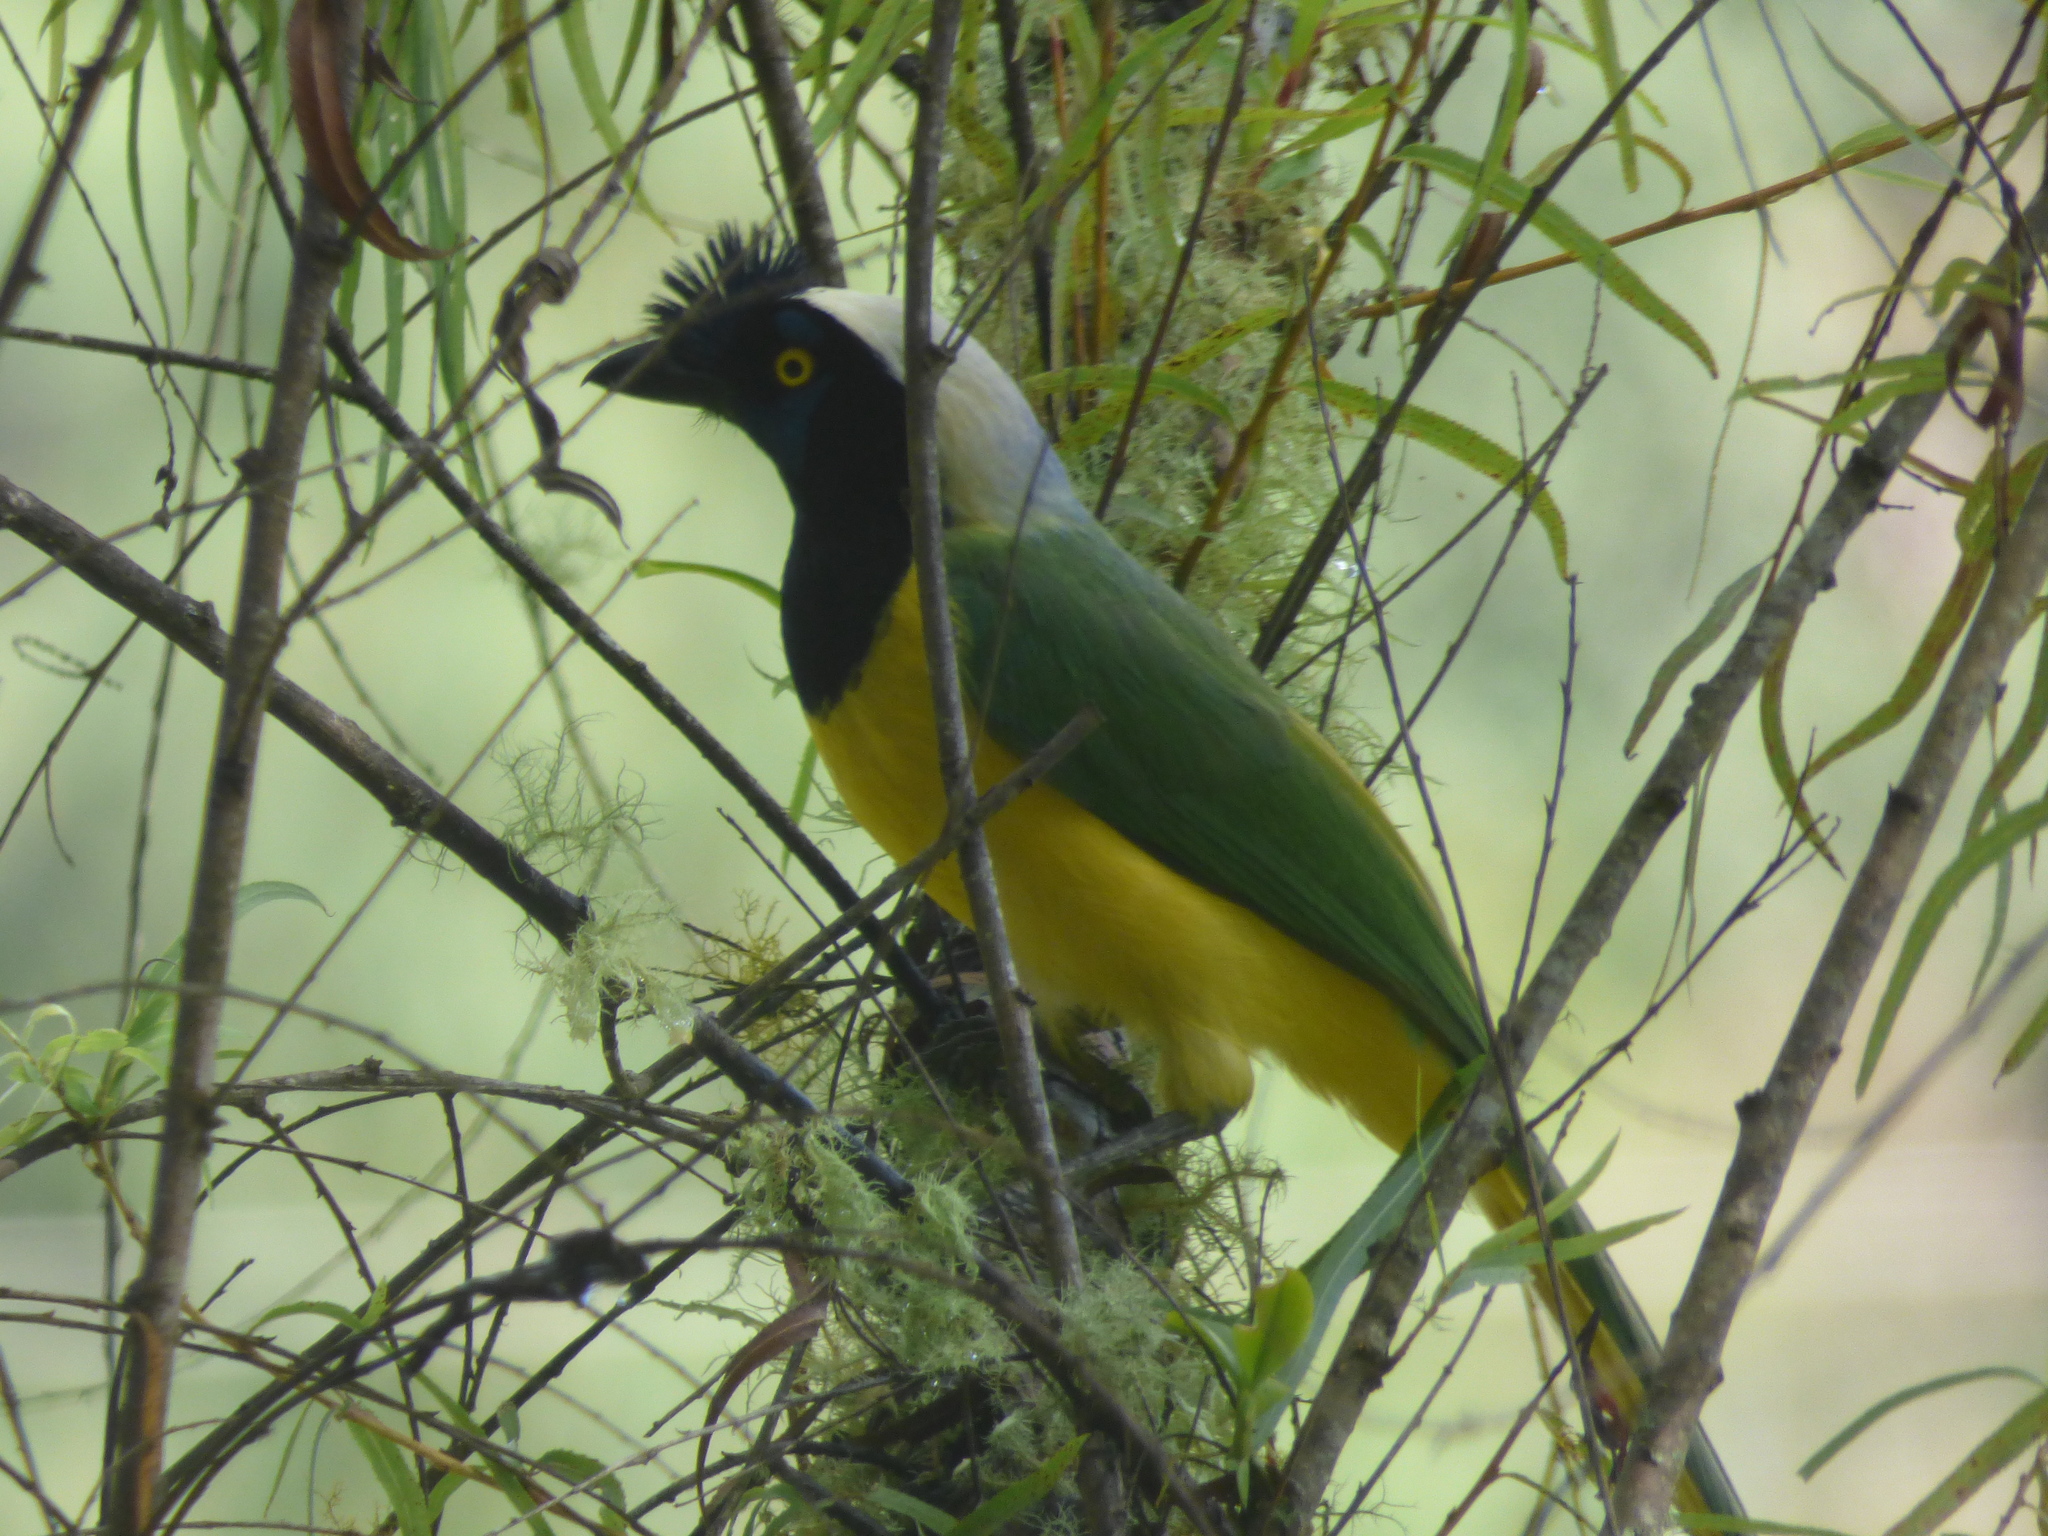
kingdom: Animalia
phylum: Chordata
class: Aves
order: Passeriformes
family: Corvidae
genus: Cyanocorax
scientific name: Cyanocorax yncas
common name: Green jay
